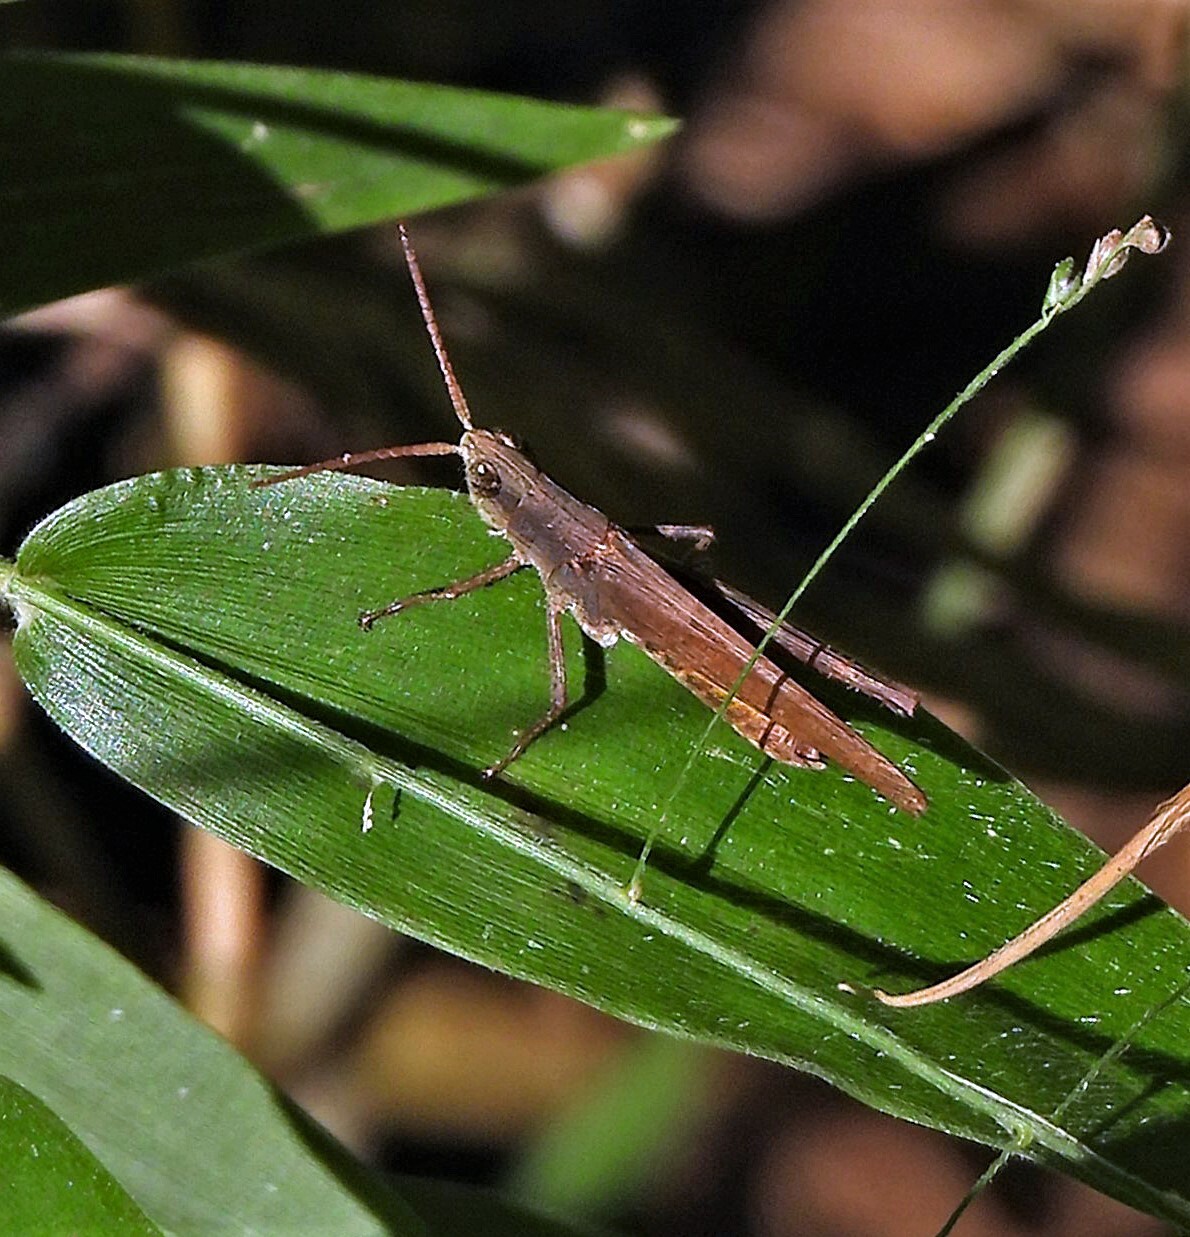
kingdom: Animalia
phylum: Arthropoda
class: Insecta
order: Orthoptera
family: Acrididae
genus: Eutryxalis
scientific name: Eutryxalis filata
